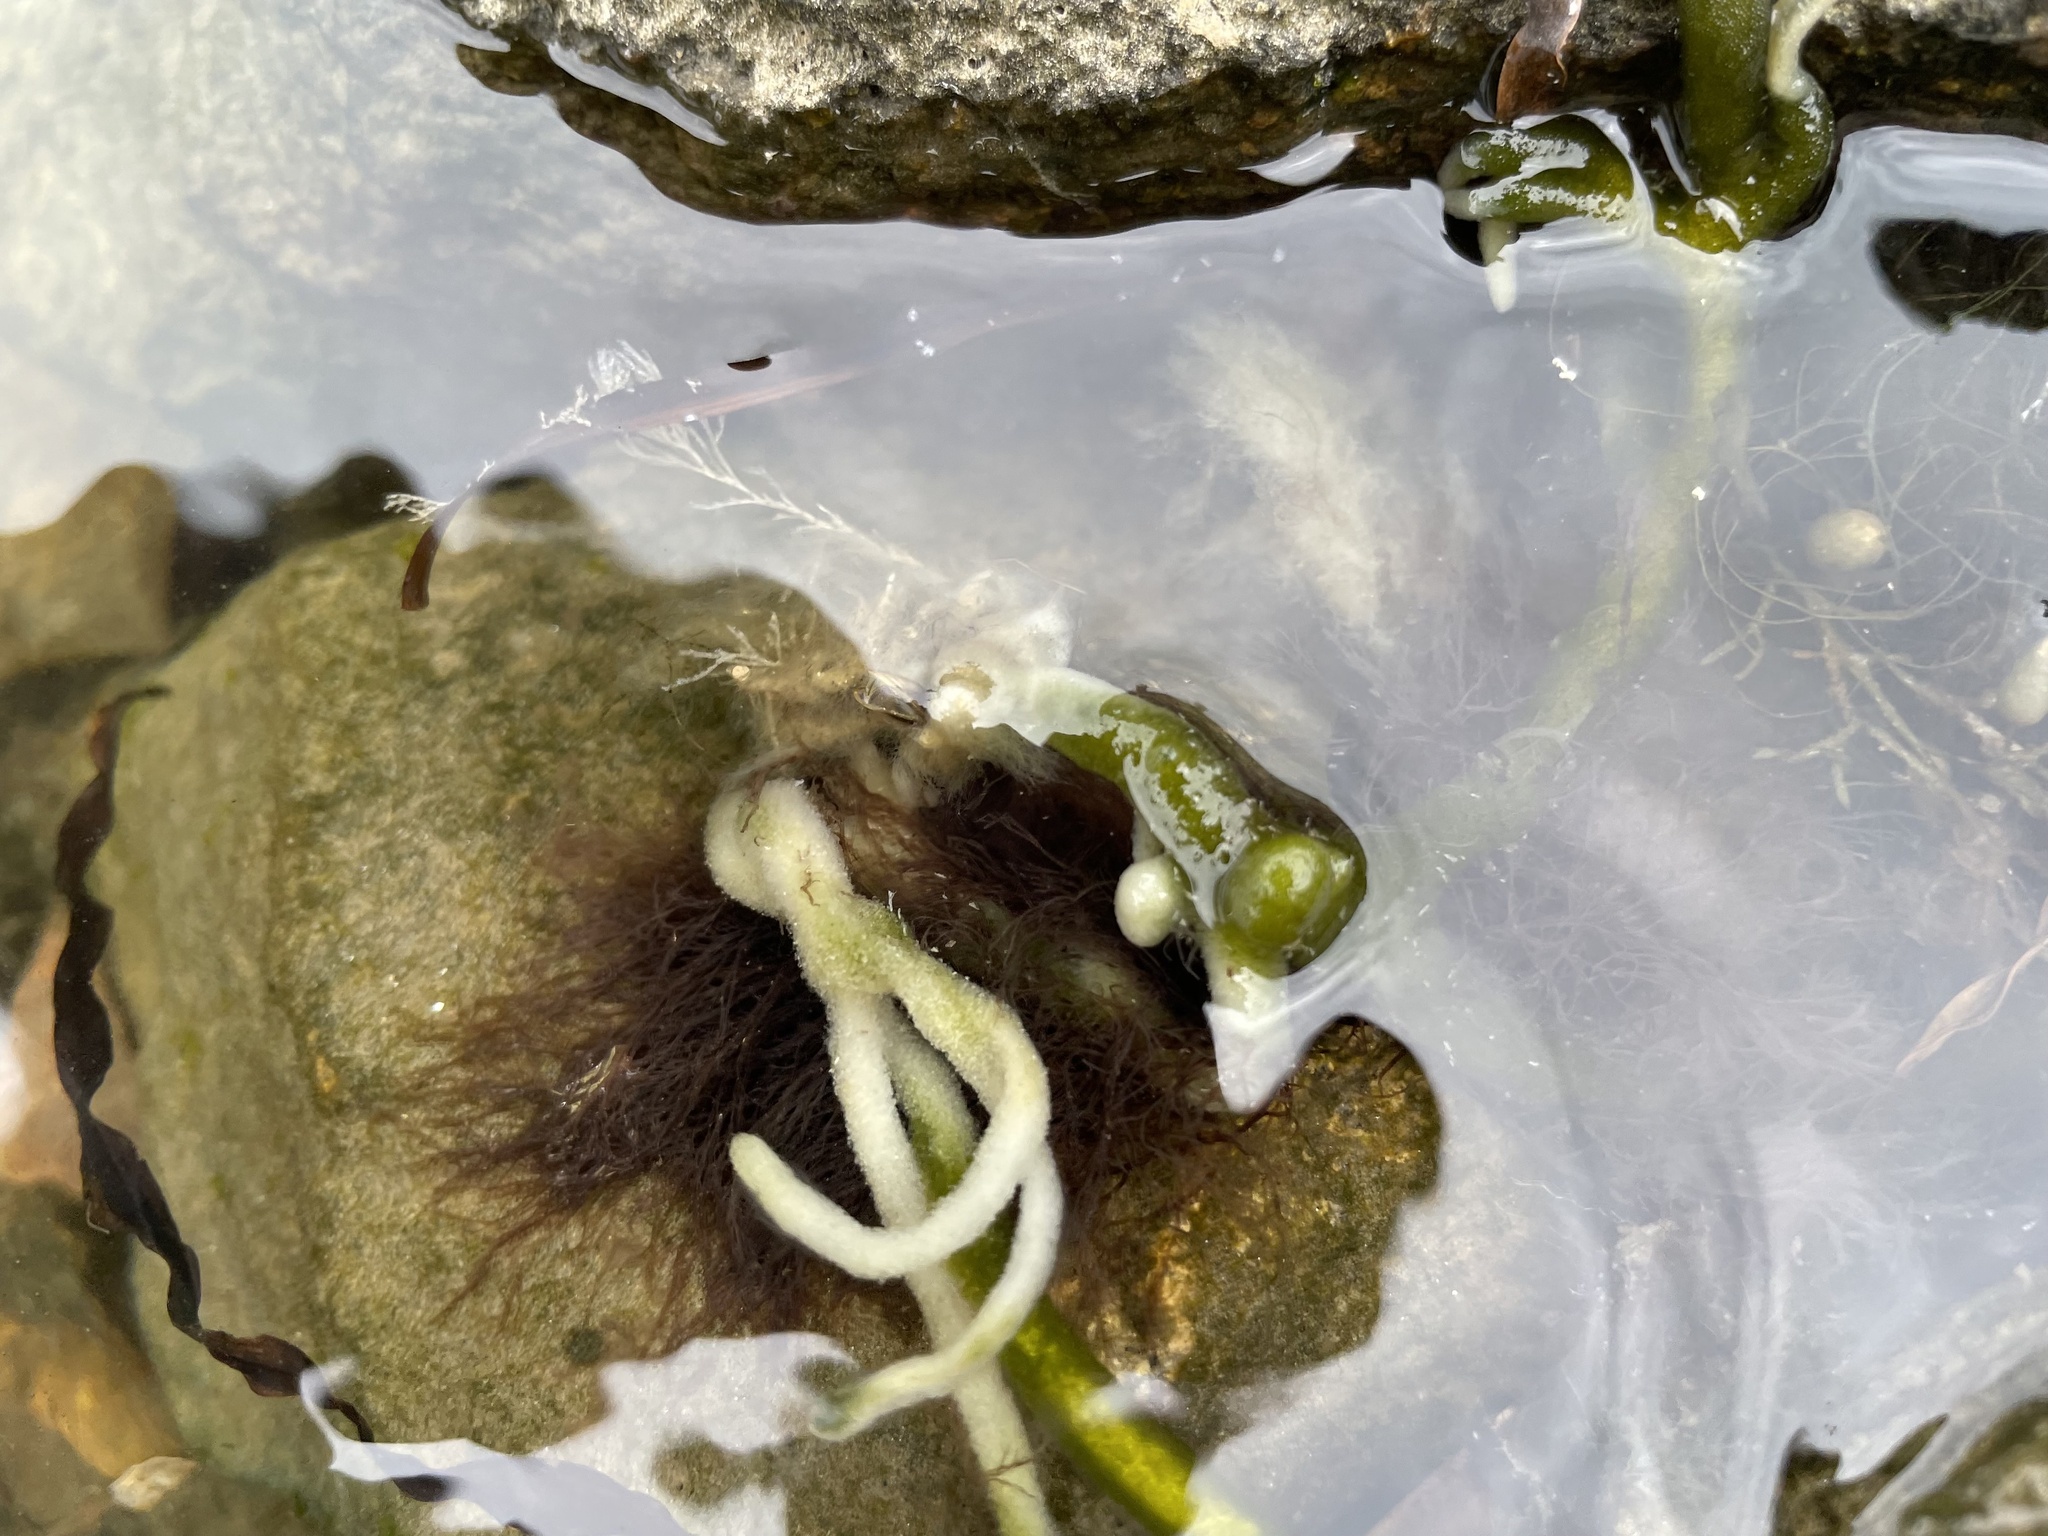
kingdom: Plantae
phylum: Chlorophyta
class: Ulvophyceae
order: Bryopsidales
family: Codiaceae
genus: Codium
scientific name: Codium fragile
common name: Dead man's fingers
